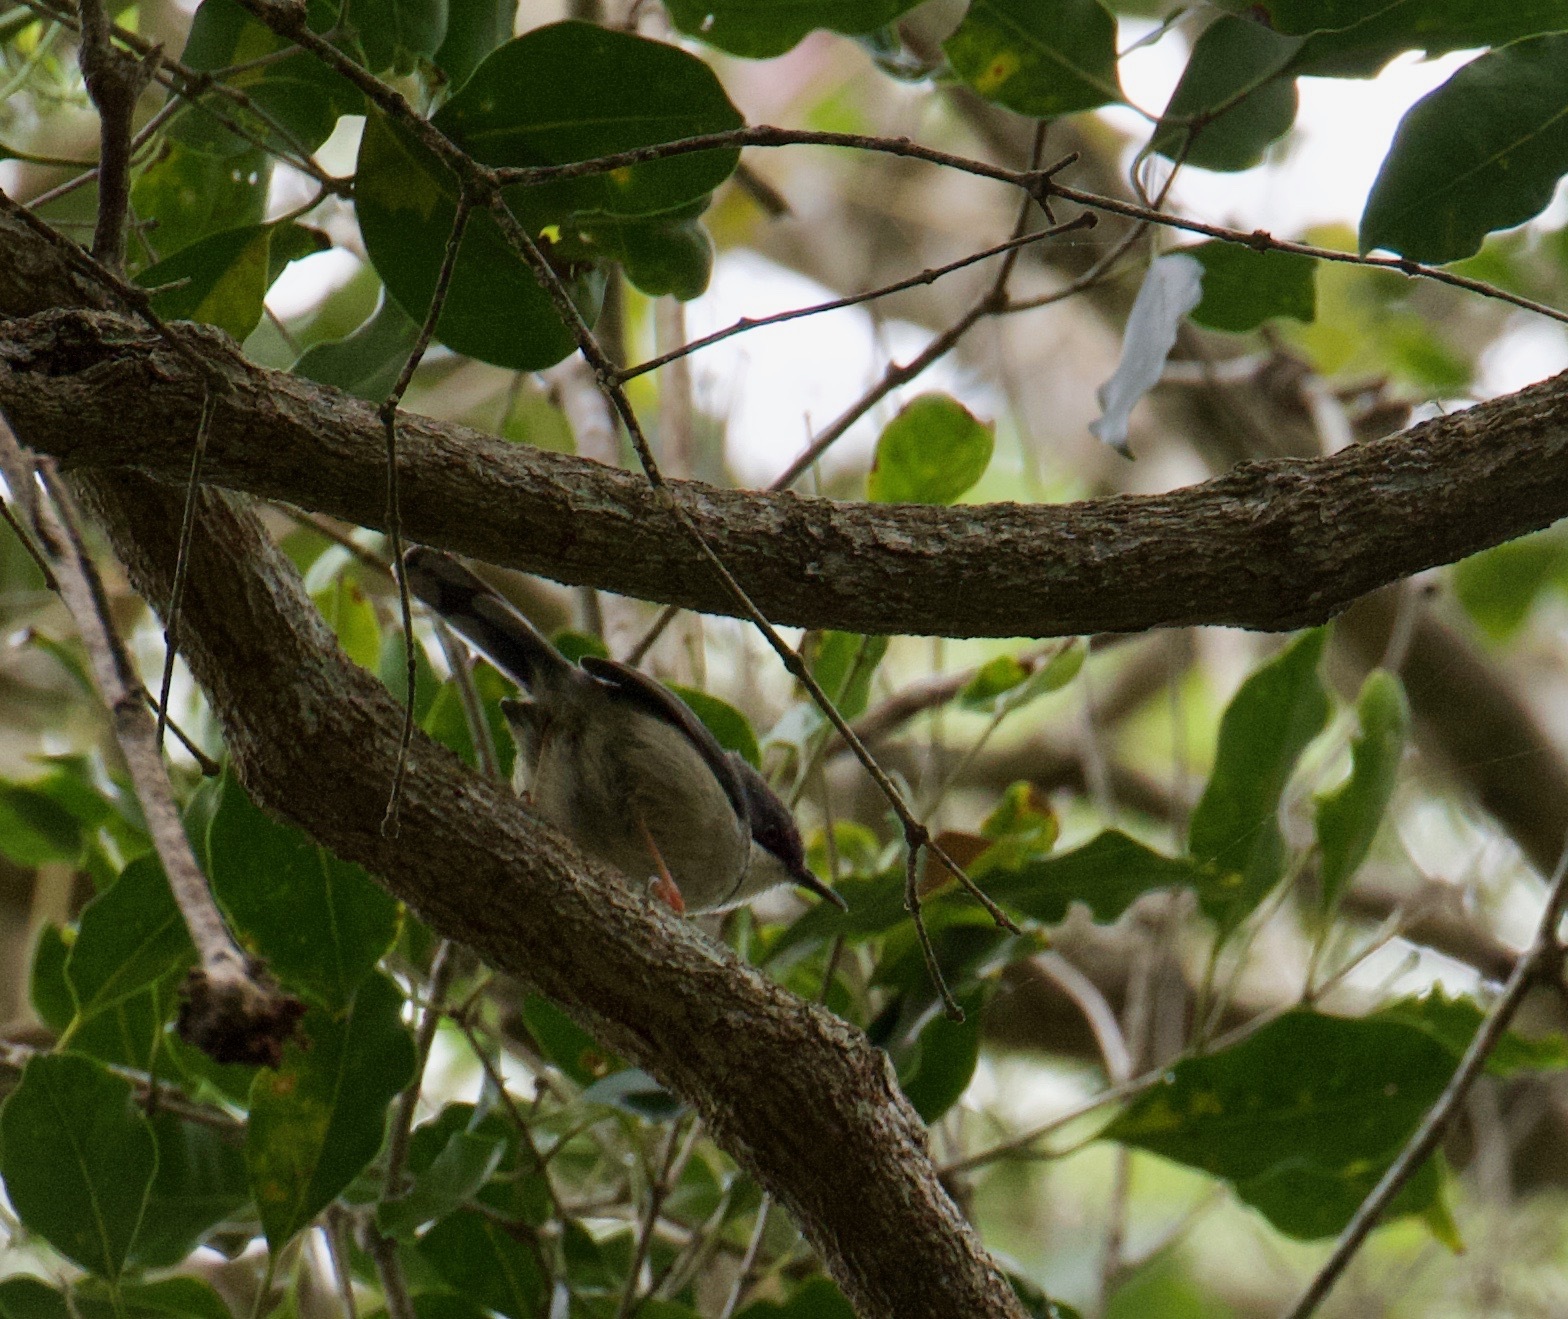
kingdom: Animalia
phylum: Chordata
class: Aves
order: Passeriformes
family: Cisticolidae
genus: Apalis
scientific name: Apalis thoracica
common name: Bar-throated apalis
